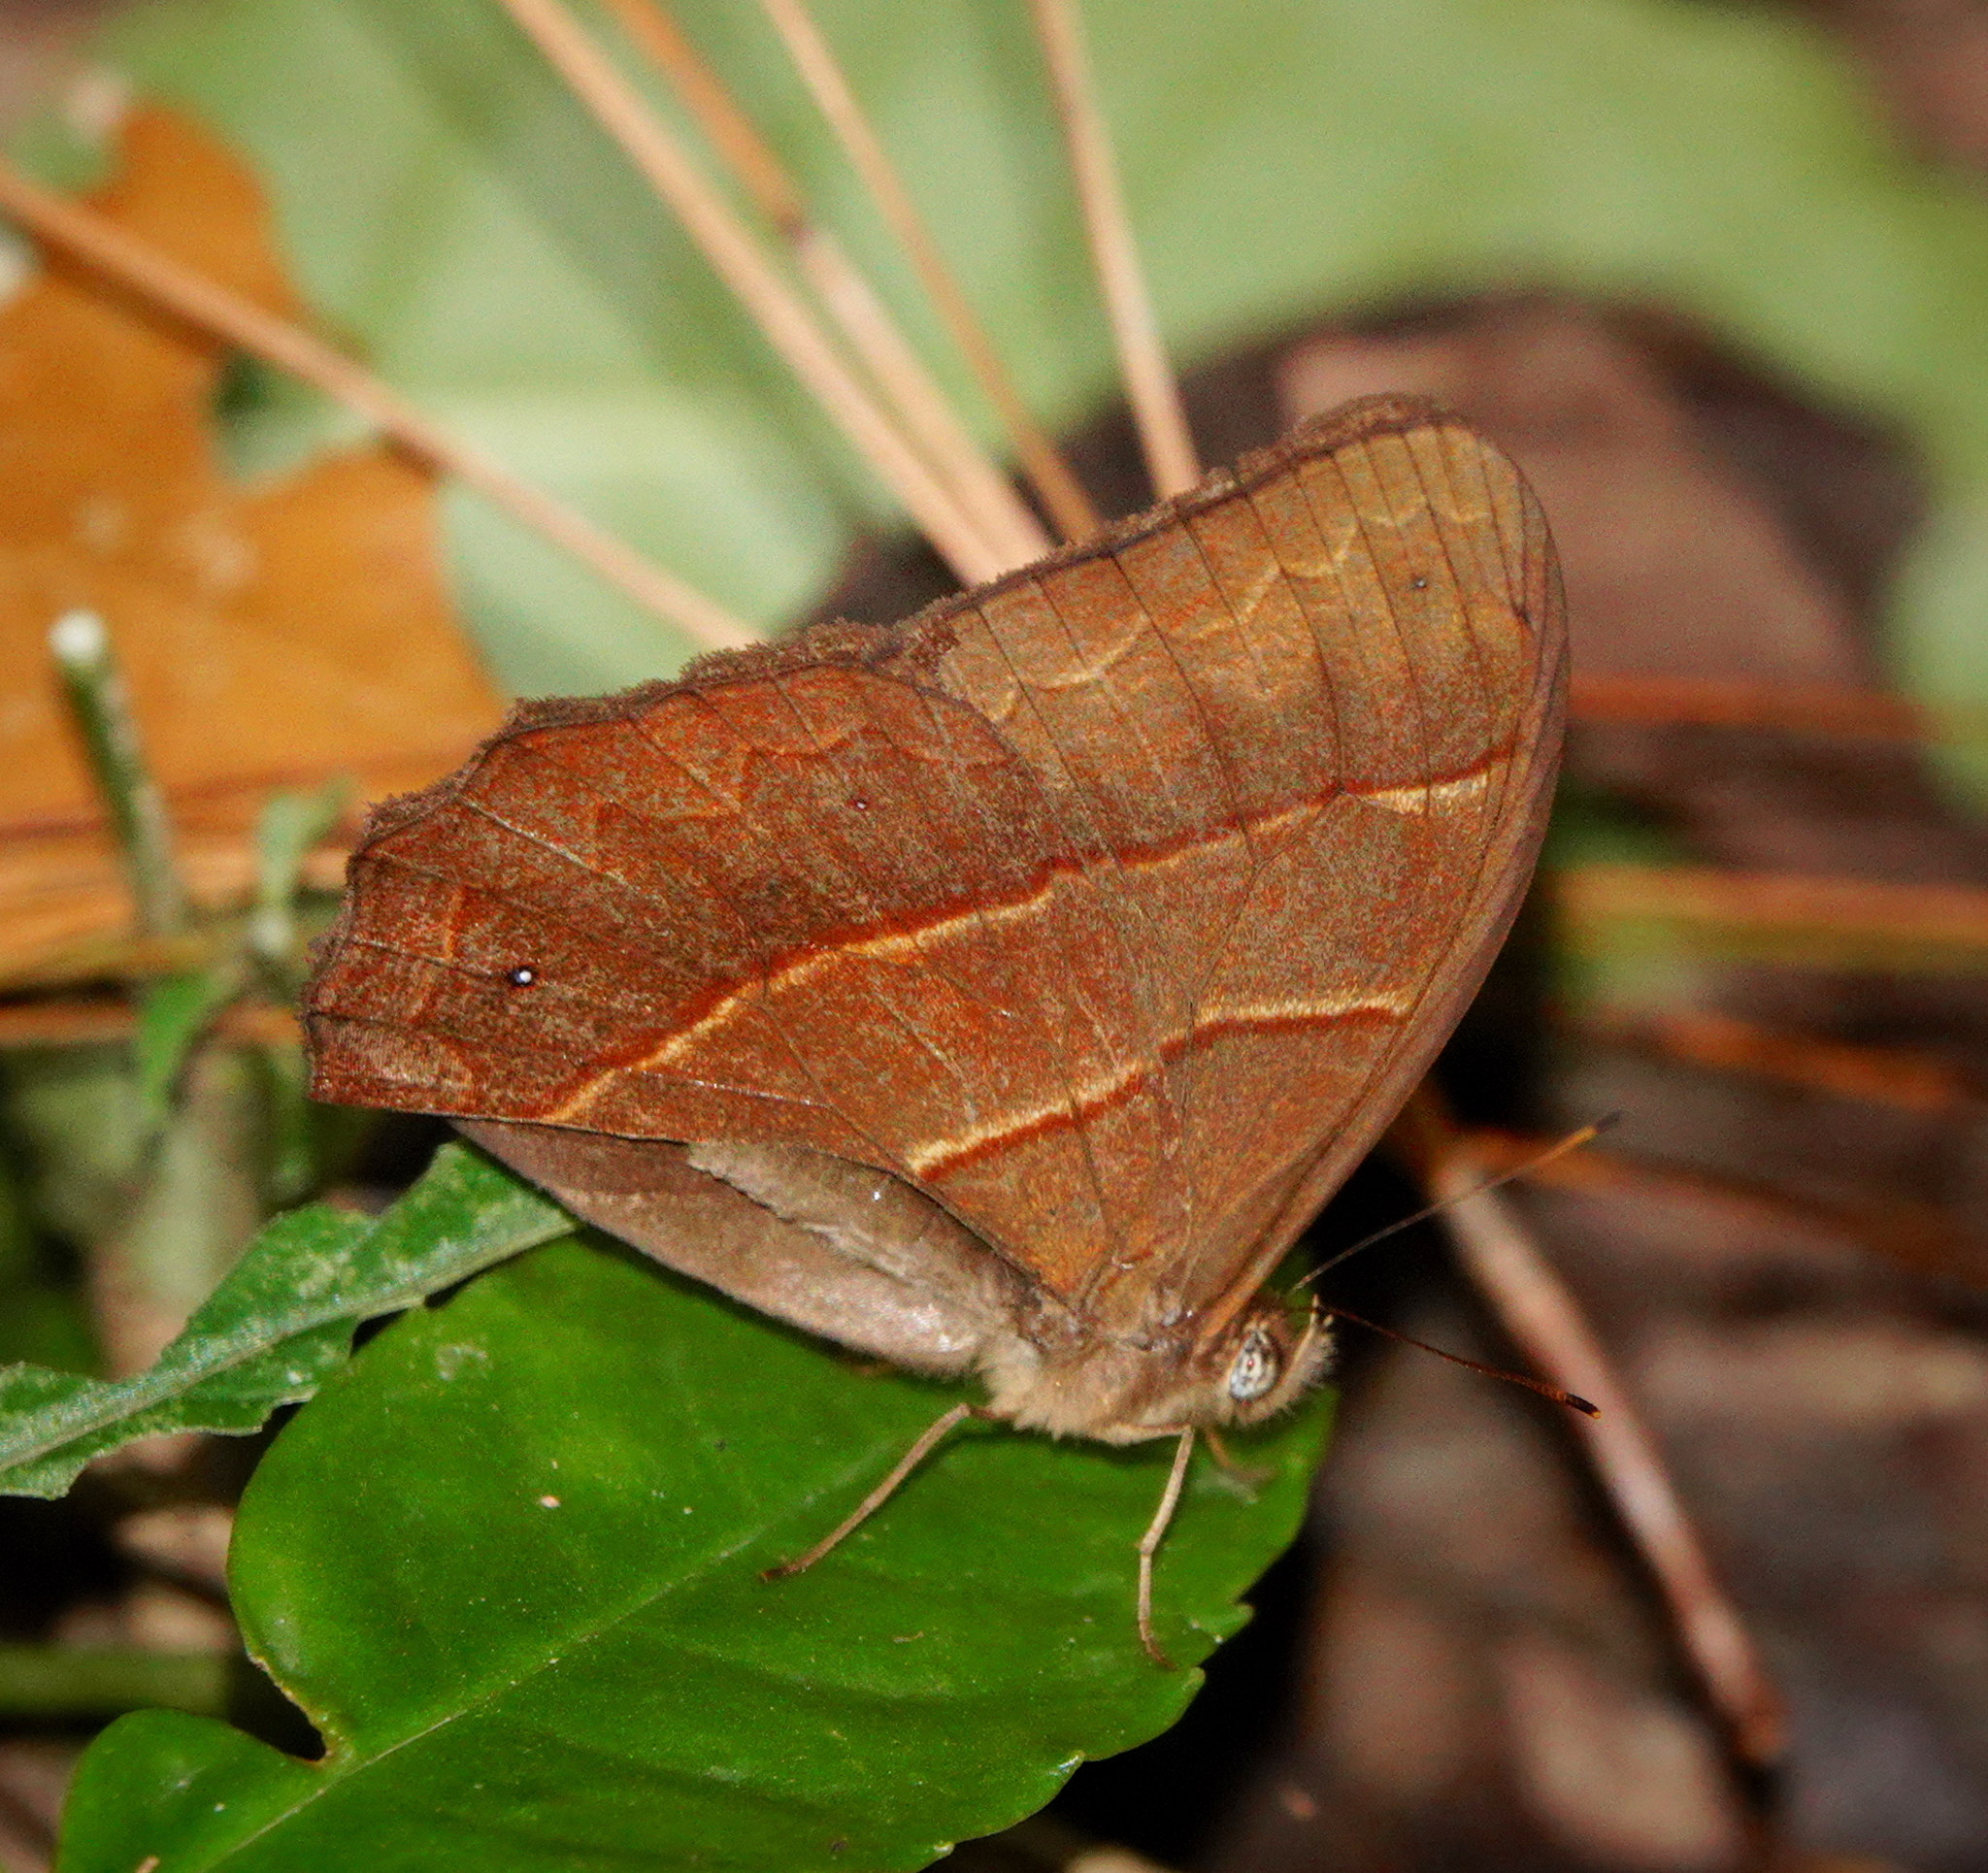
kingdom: Animalia
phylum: Arthropoda
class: Insecta
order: Lepidoptera
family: Nymphalidae
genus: Satyrotaygetis
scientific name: Satyrotaygetis satyrina
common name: Wide-bordered satyr
